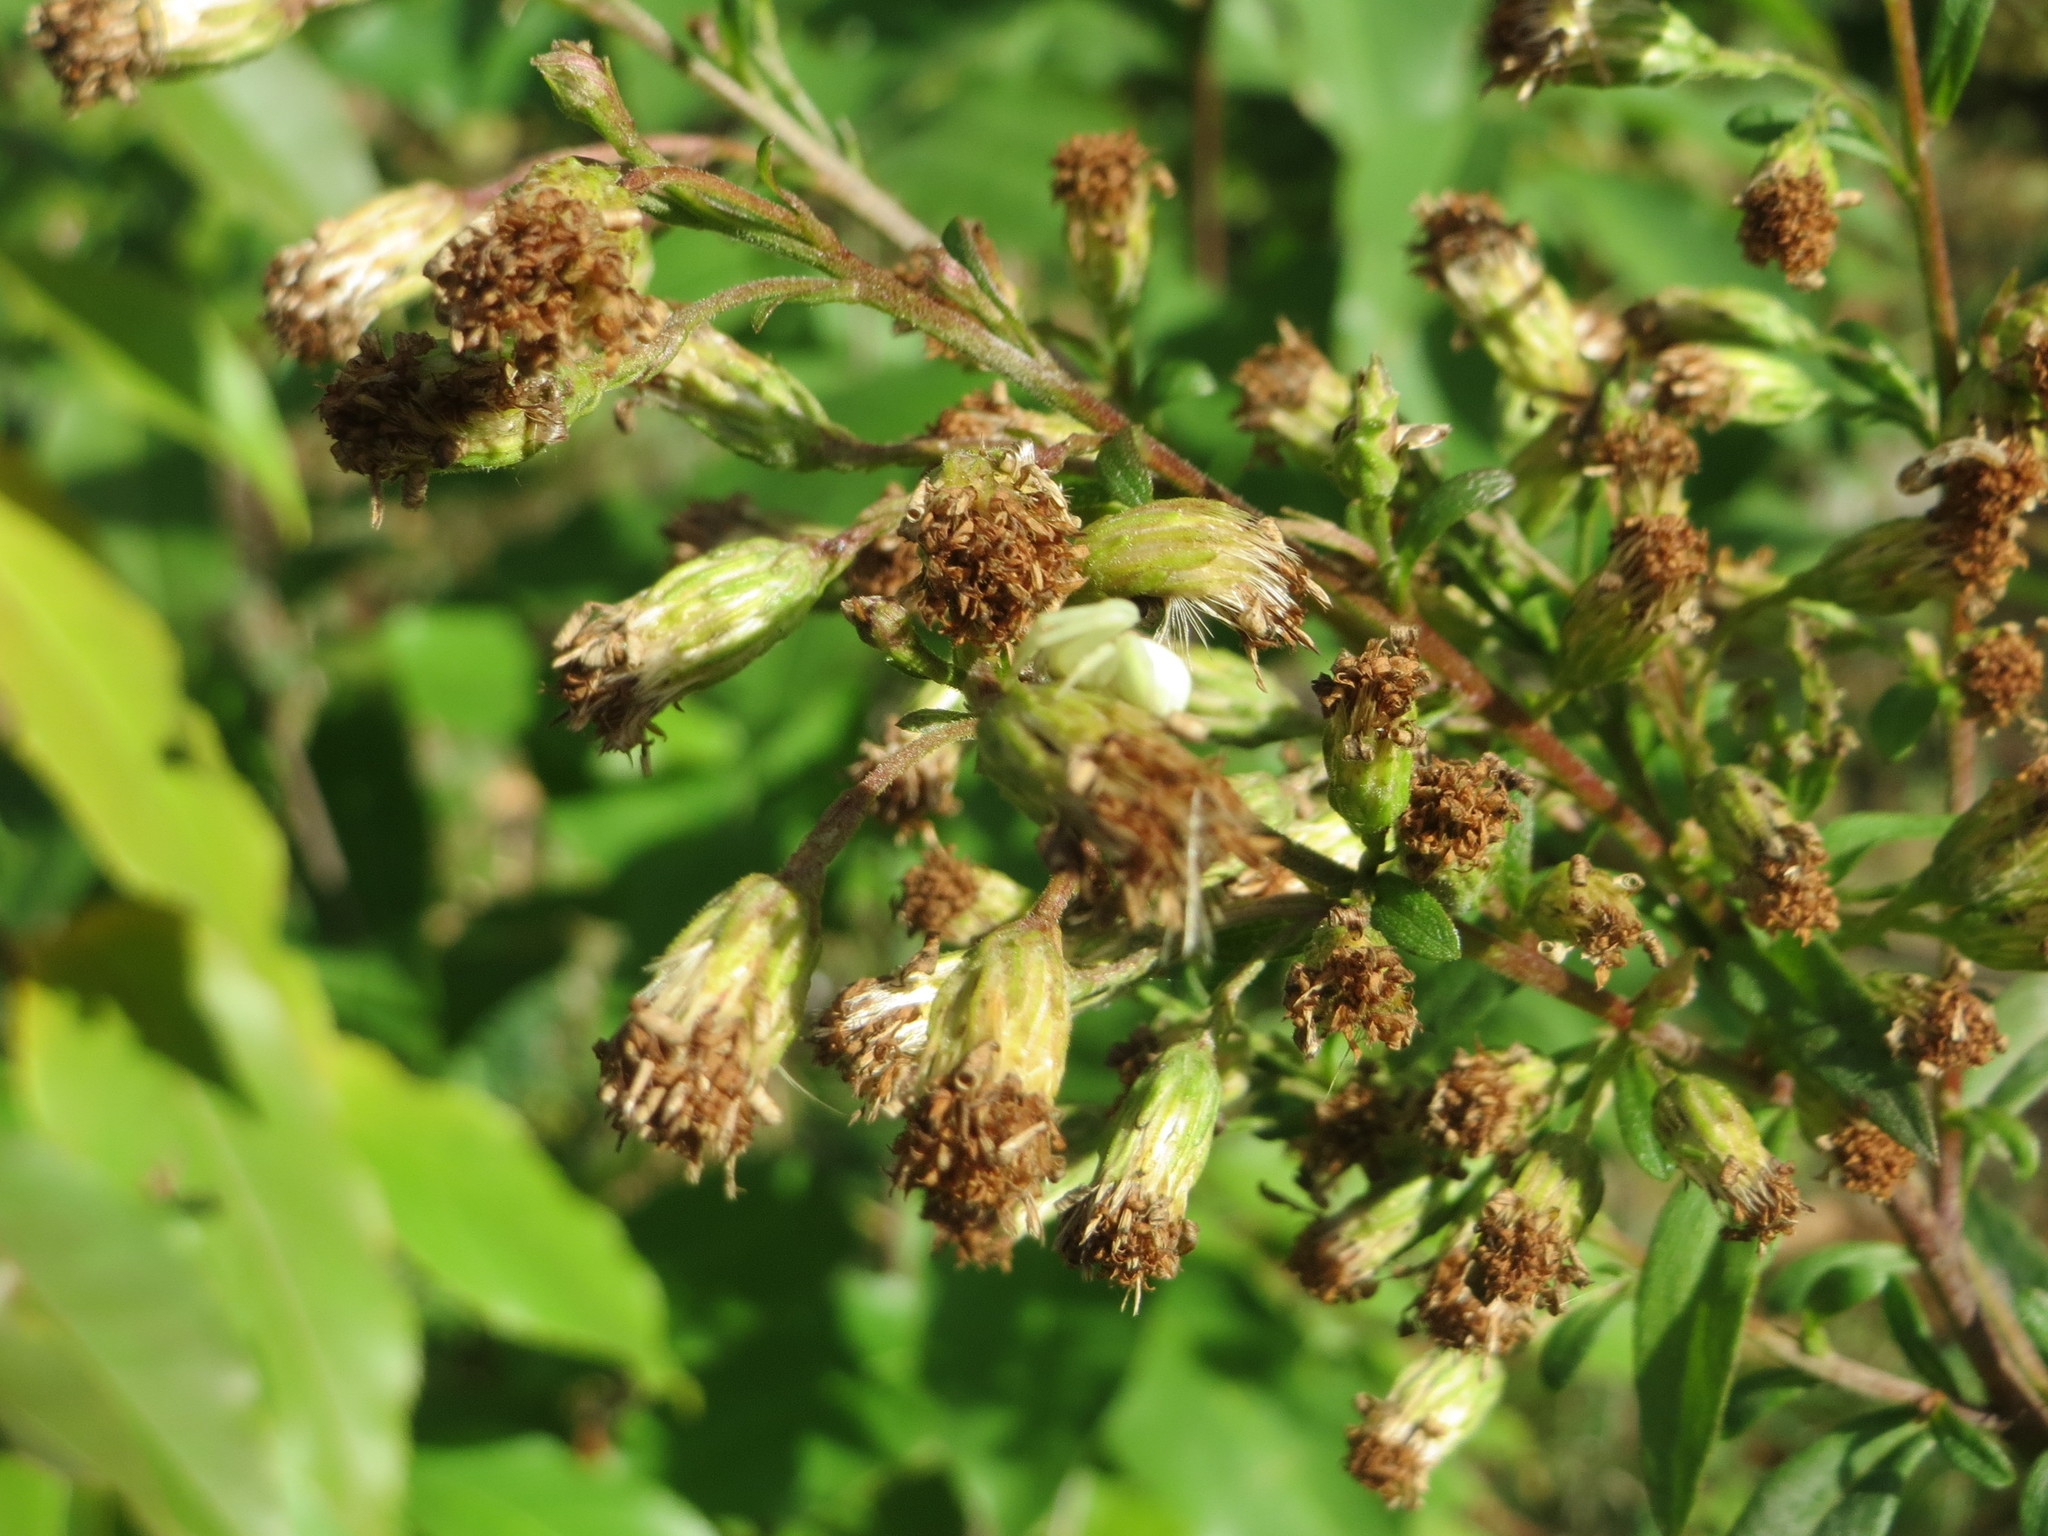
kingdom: Plantae
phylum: Tracheophyta
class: Magnoliopsida
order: Asterales
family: Asteraceae
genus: Solidago
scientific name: Solidago virgaurea
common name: Goldenrod
